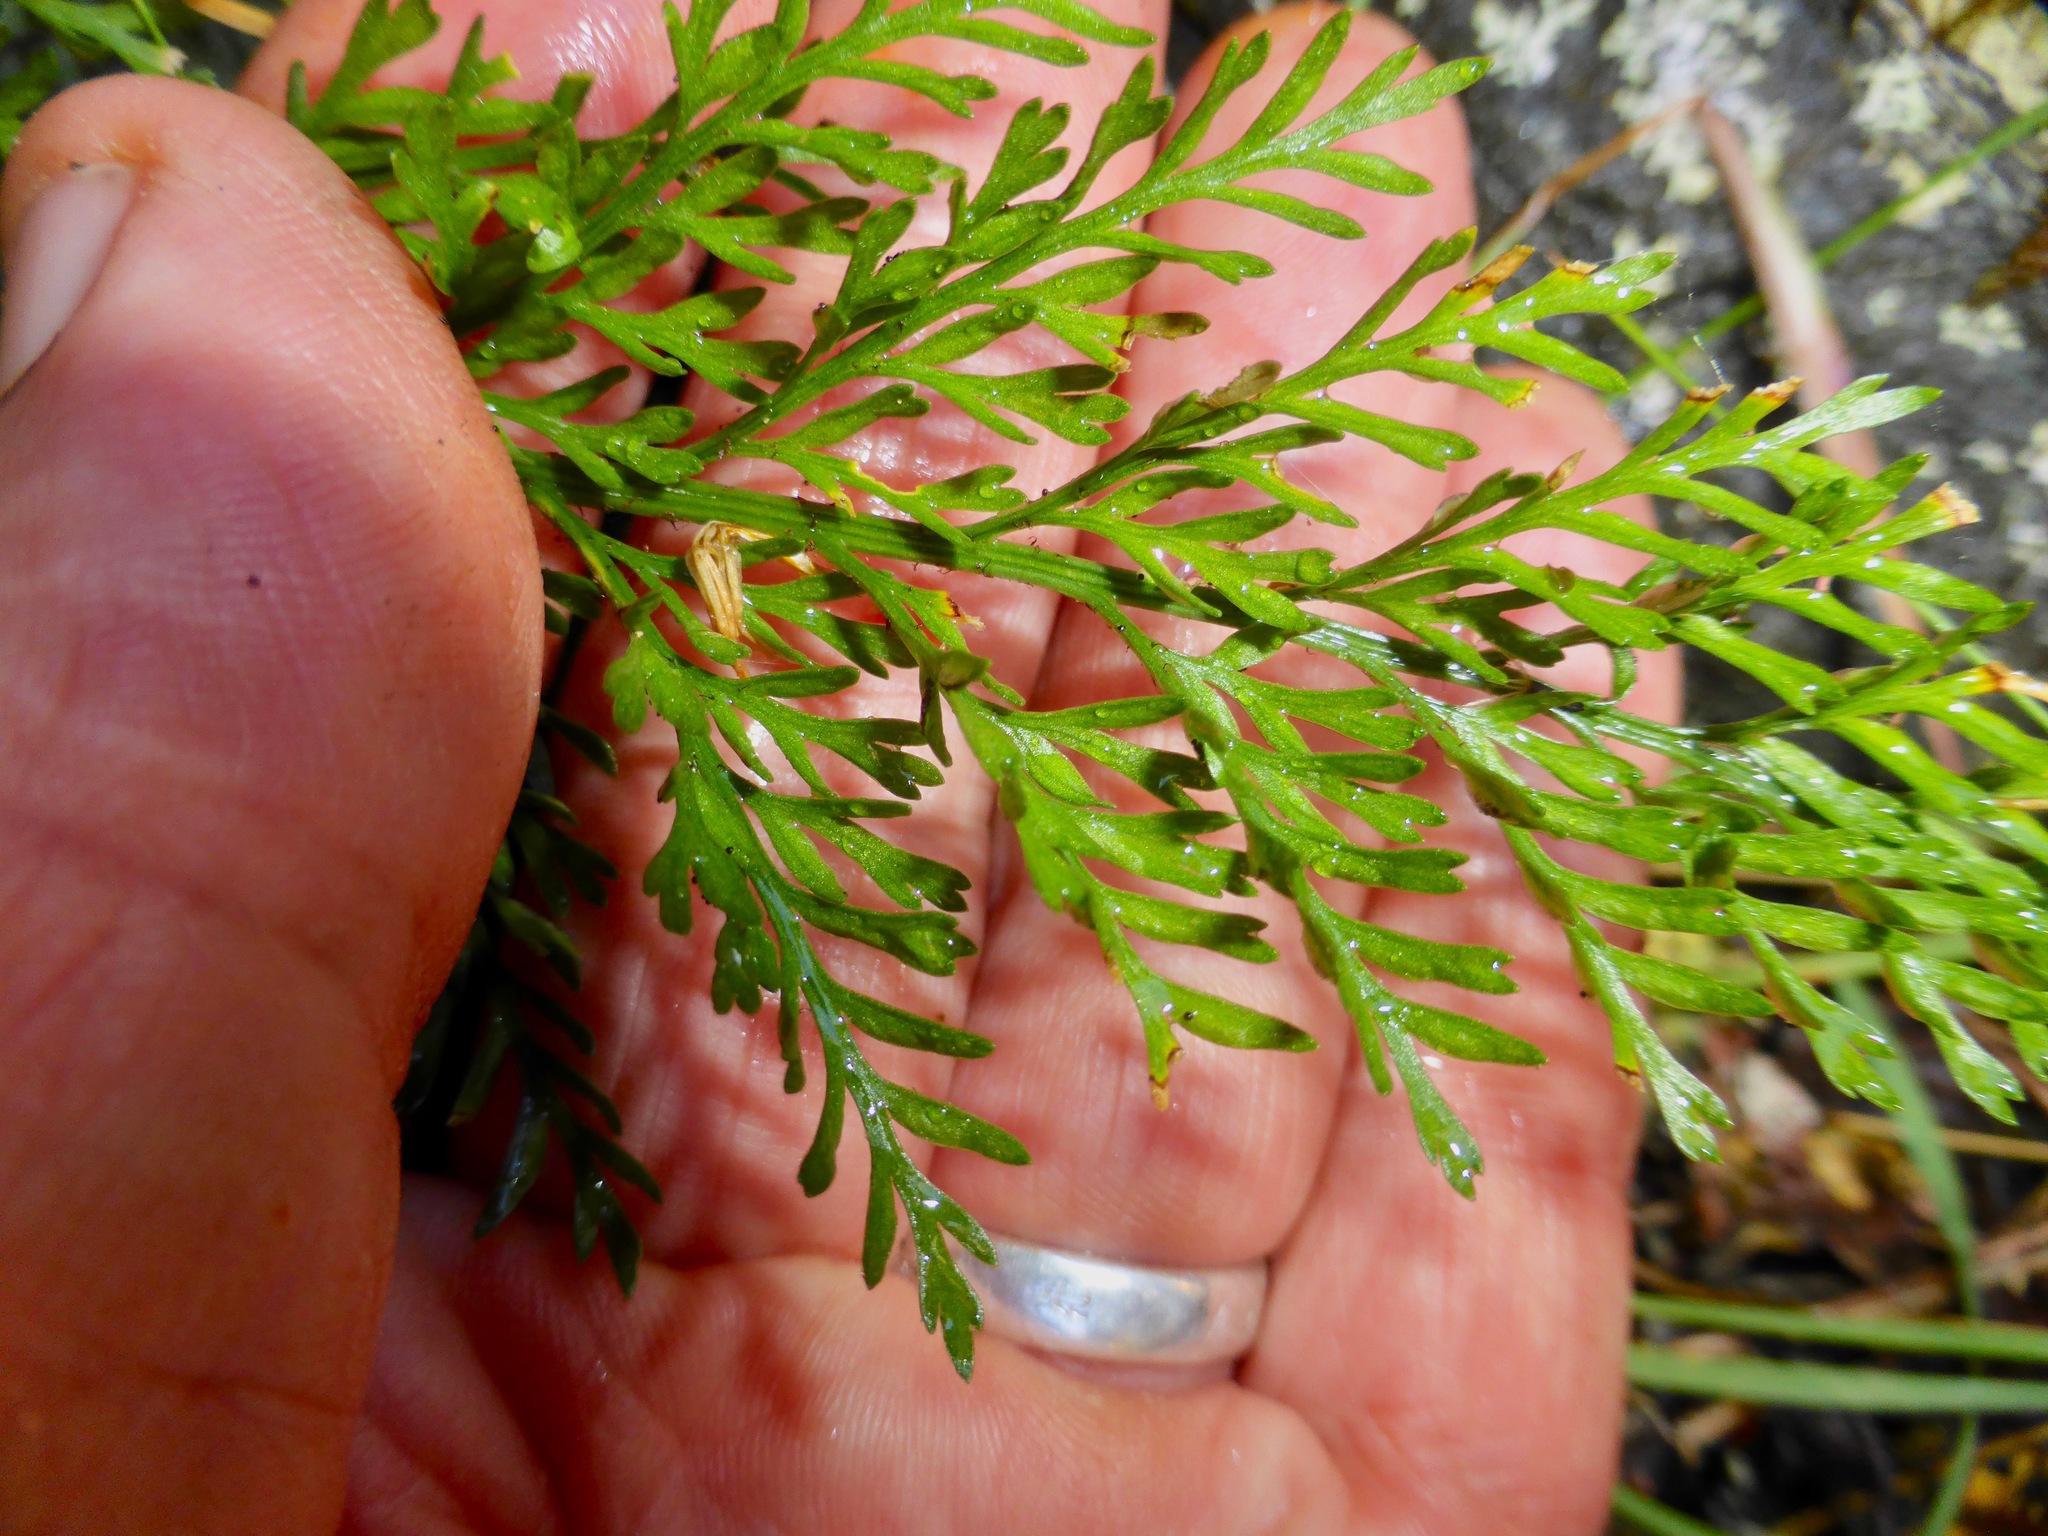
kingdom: Plantae
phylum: Tracheophyta
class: Polypodiopsida
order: Polypodiales
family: Aspleniaceae
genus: Asplenium
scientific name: Asplenium richardii
